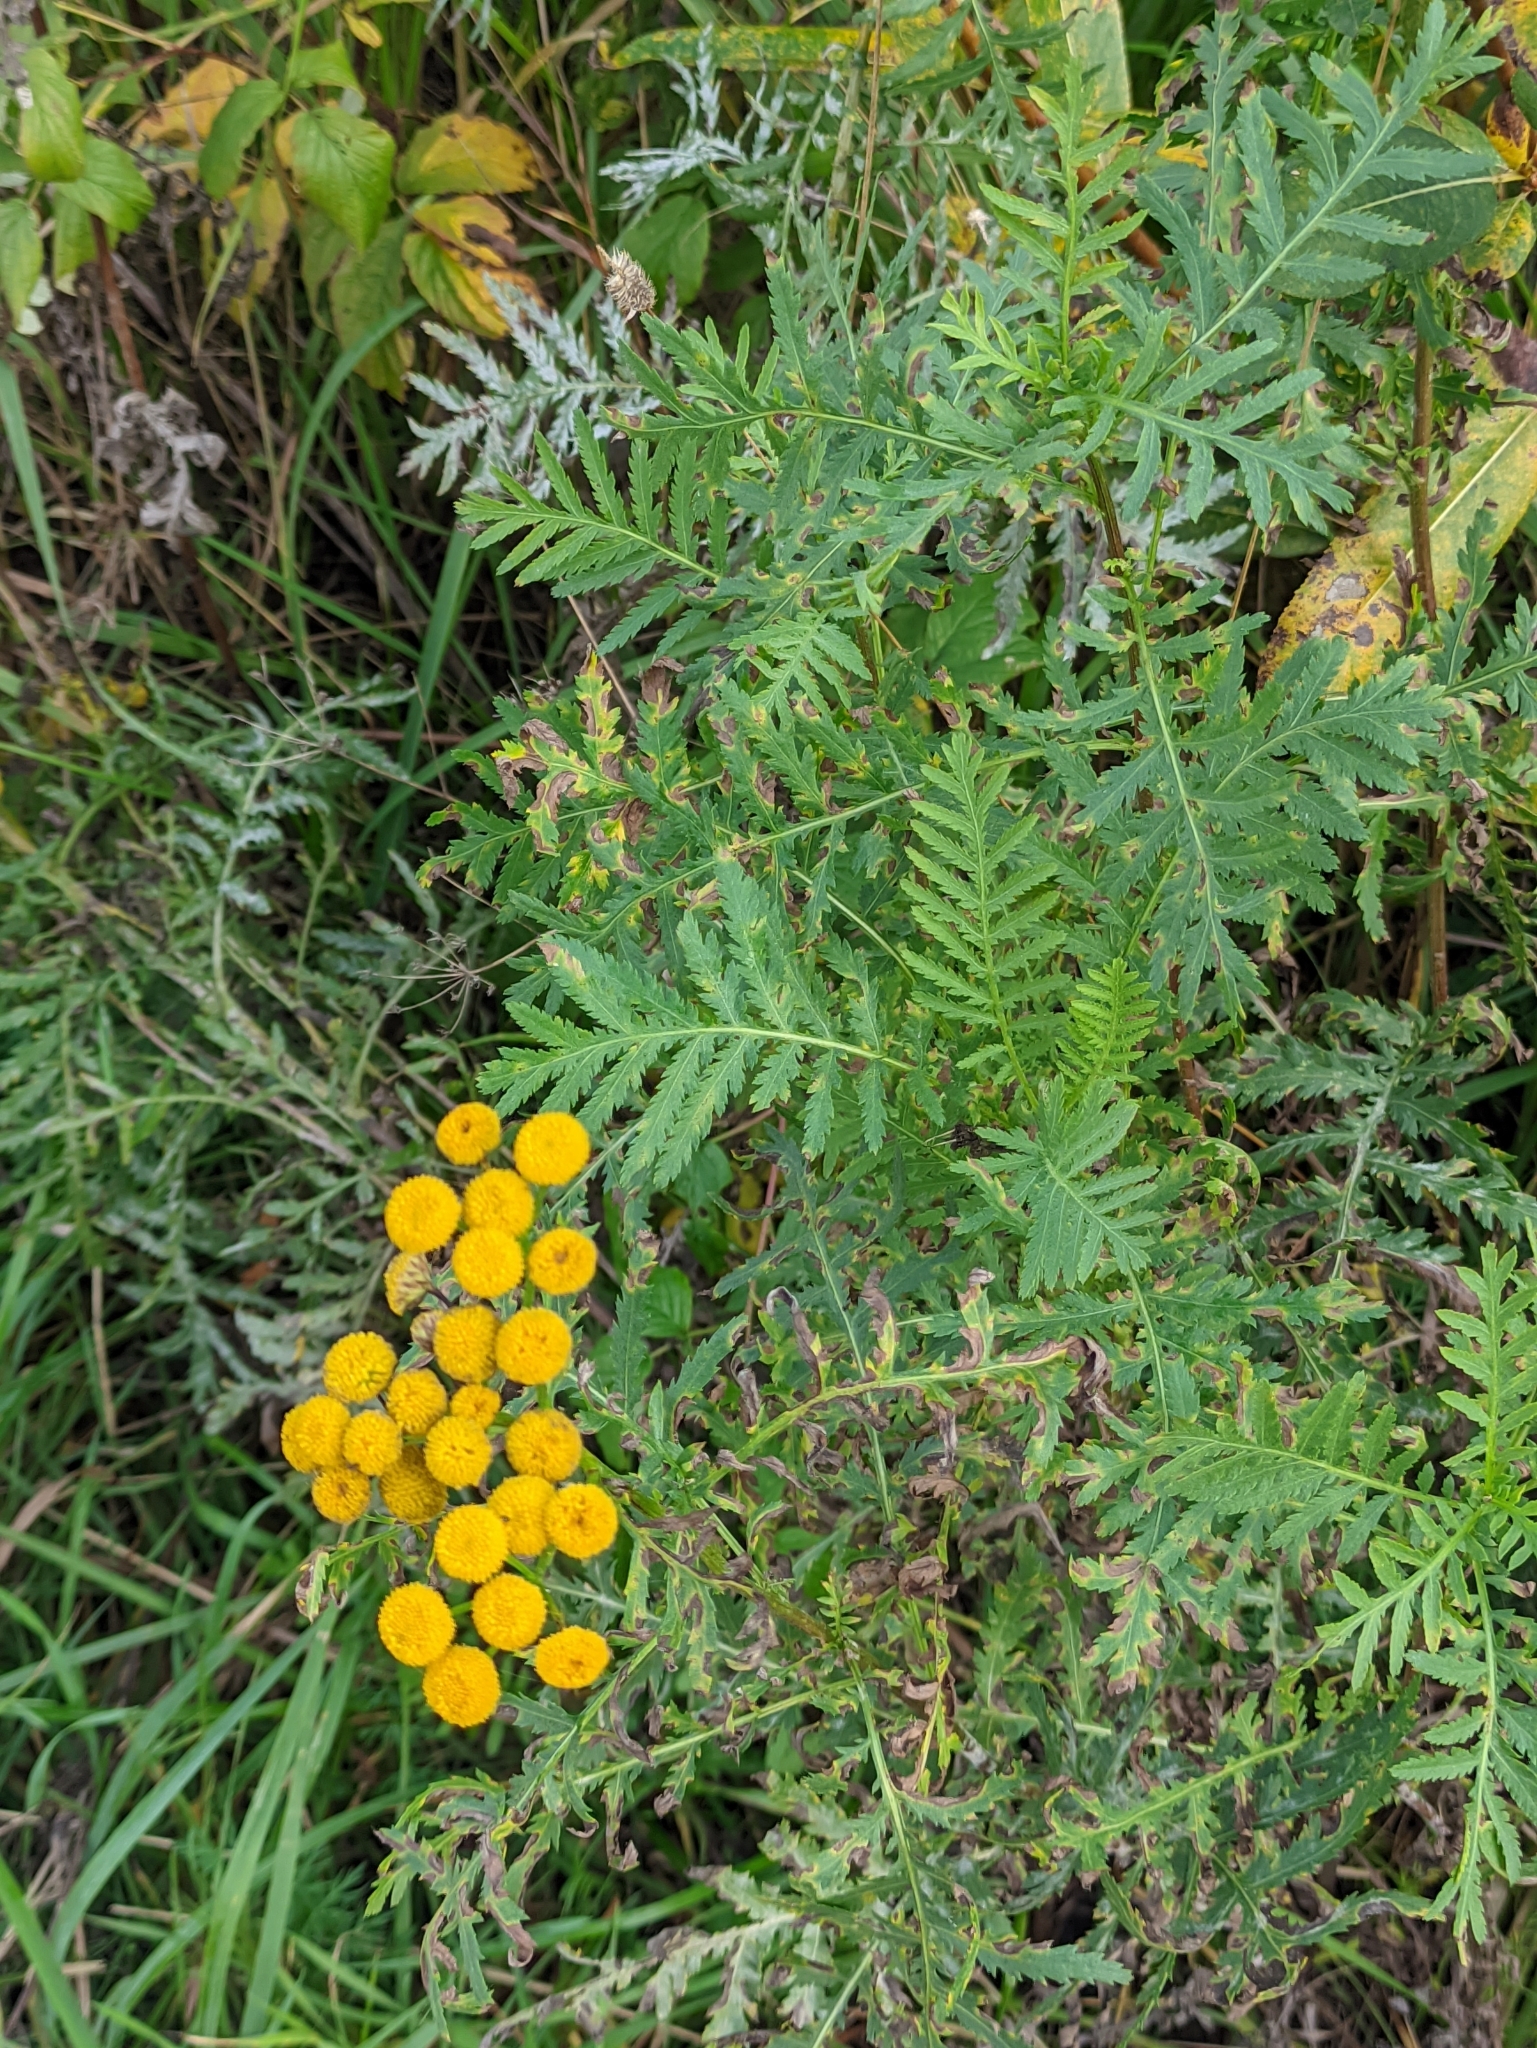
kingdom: Plantae
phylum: Tracheophyta
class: Magnoliopsida
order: Asterales
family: Asteraceae
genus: Tanacetum
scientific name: Tanacetum vulgare
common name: Common tansy
